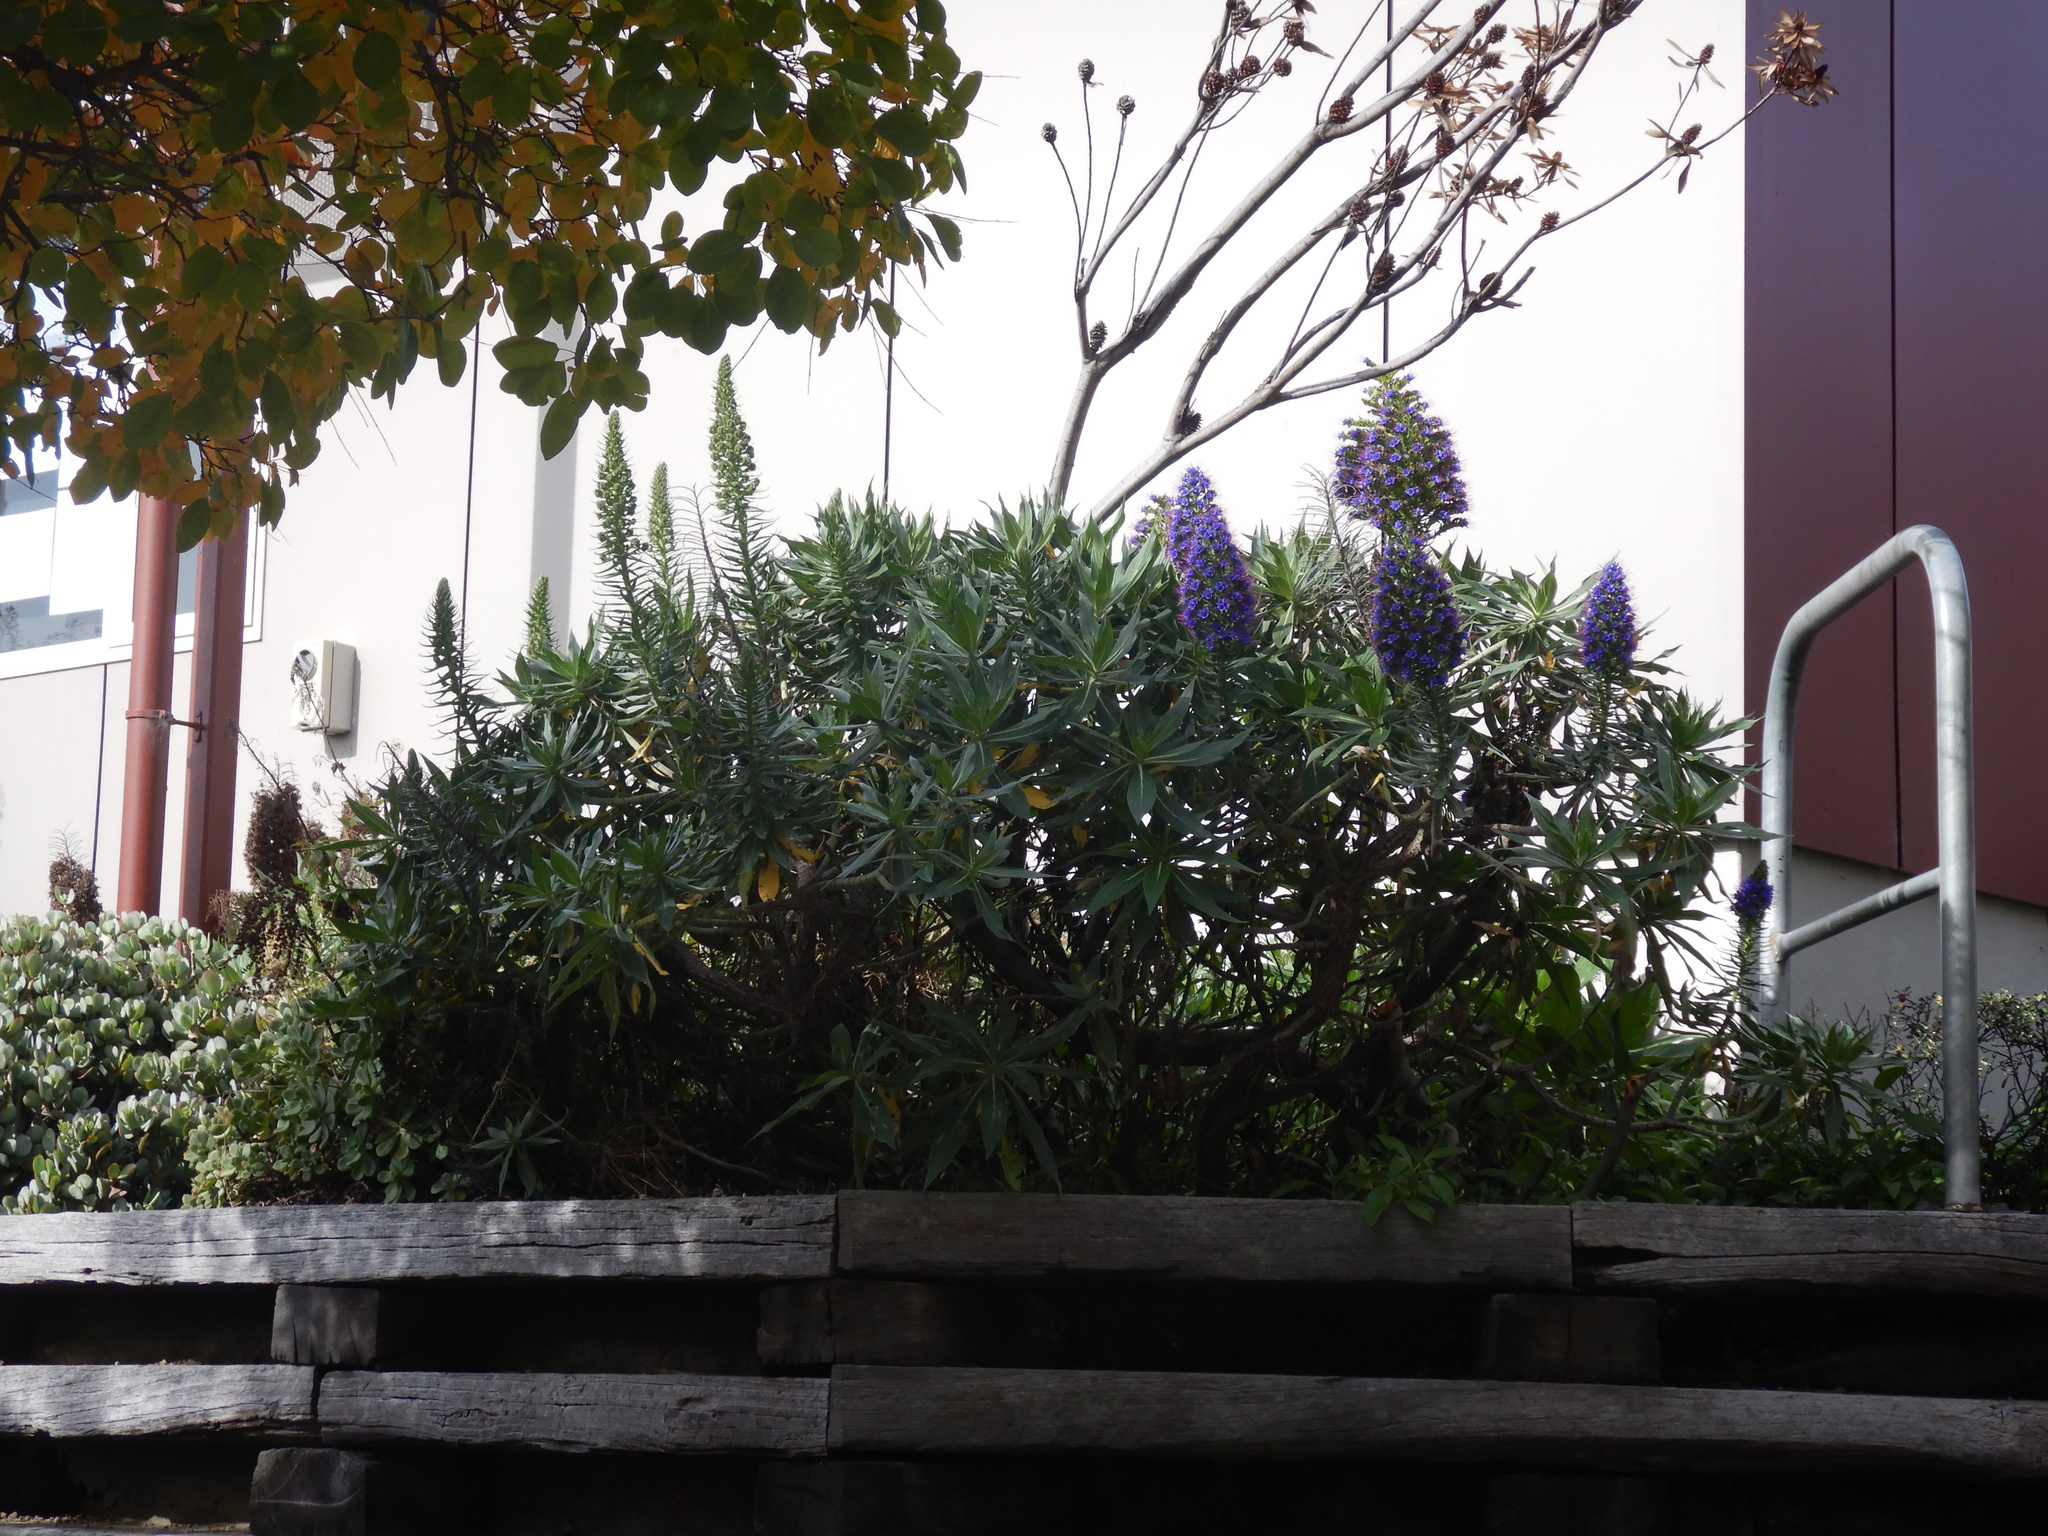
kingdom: Plantae
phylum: Tracheophyta
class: Magnoliopsida
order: Boraginales
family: Boraginaceae
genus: Echium
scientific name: Echium candicans
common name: Pride of madeira
